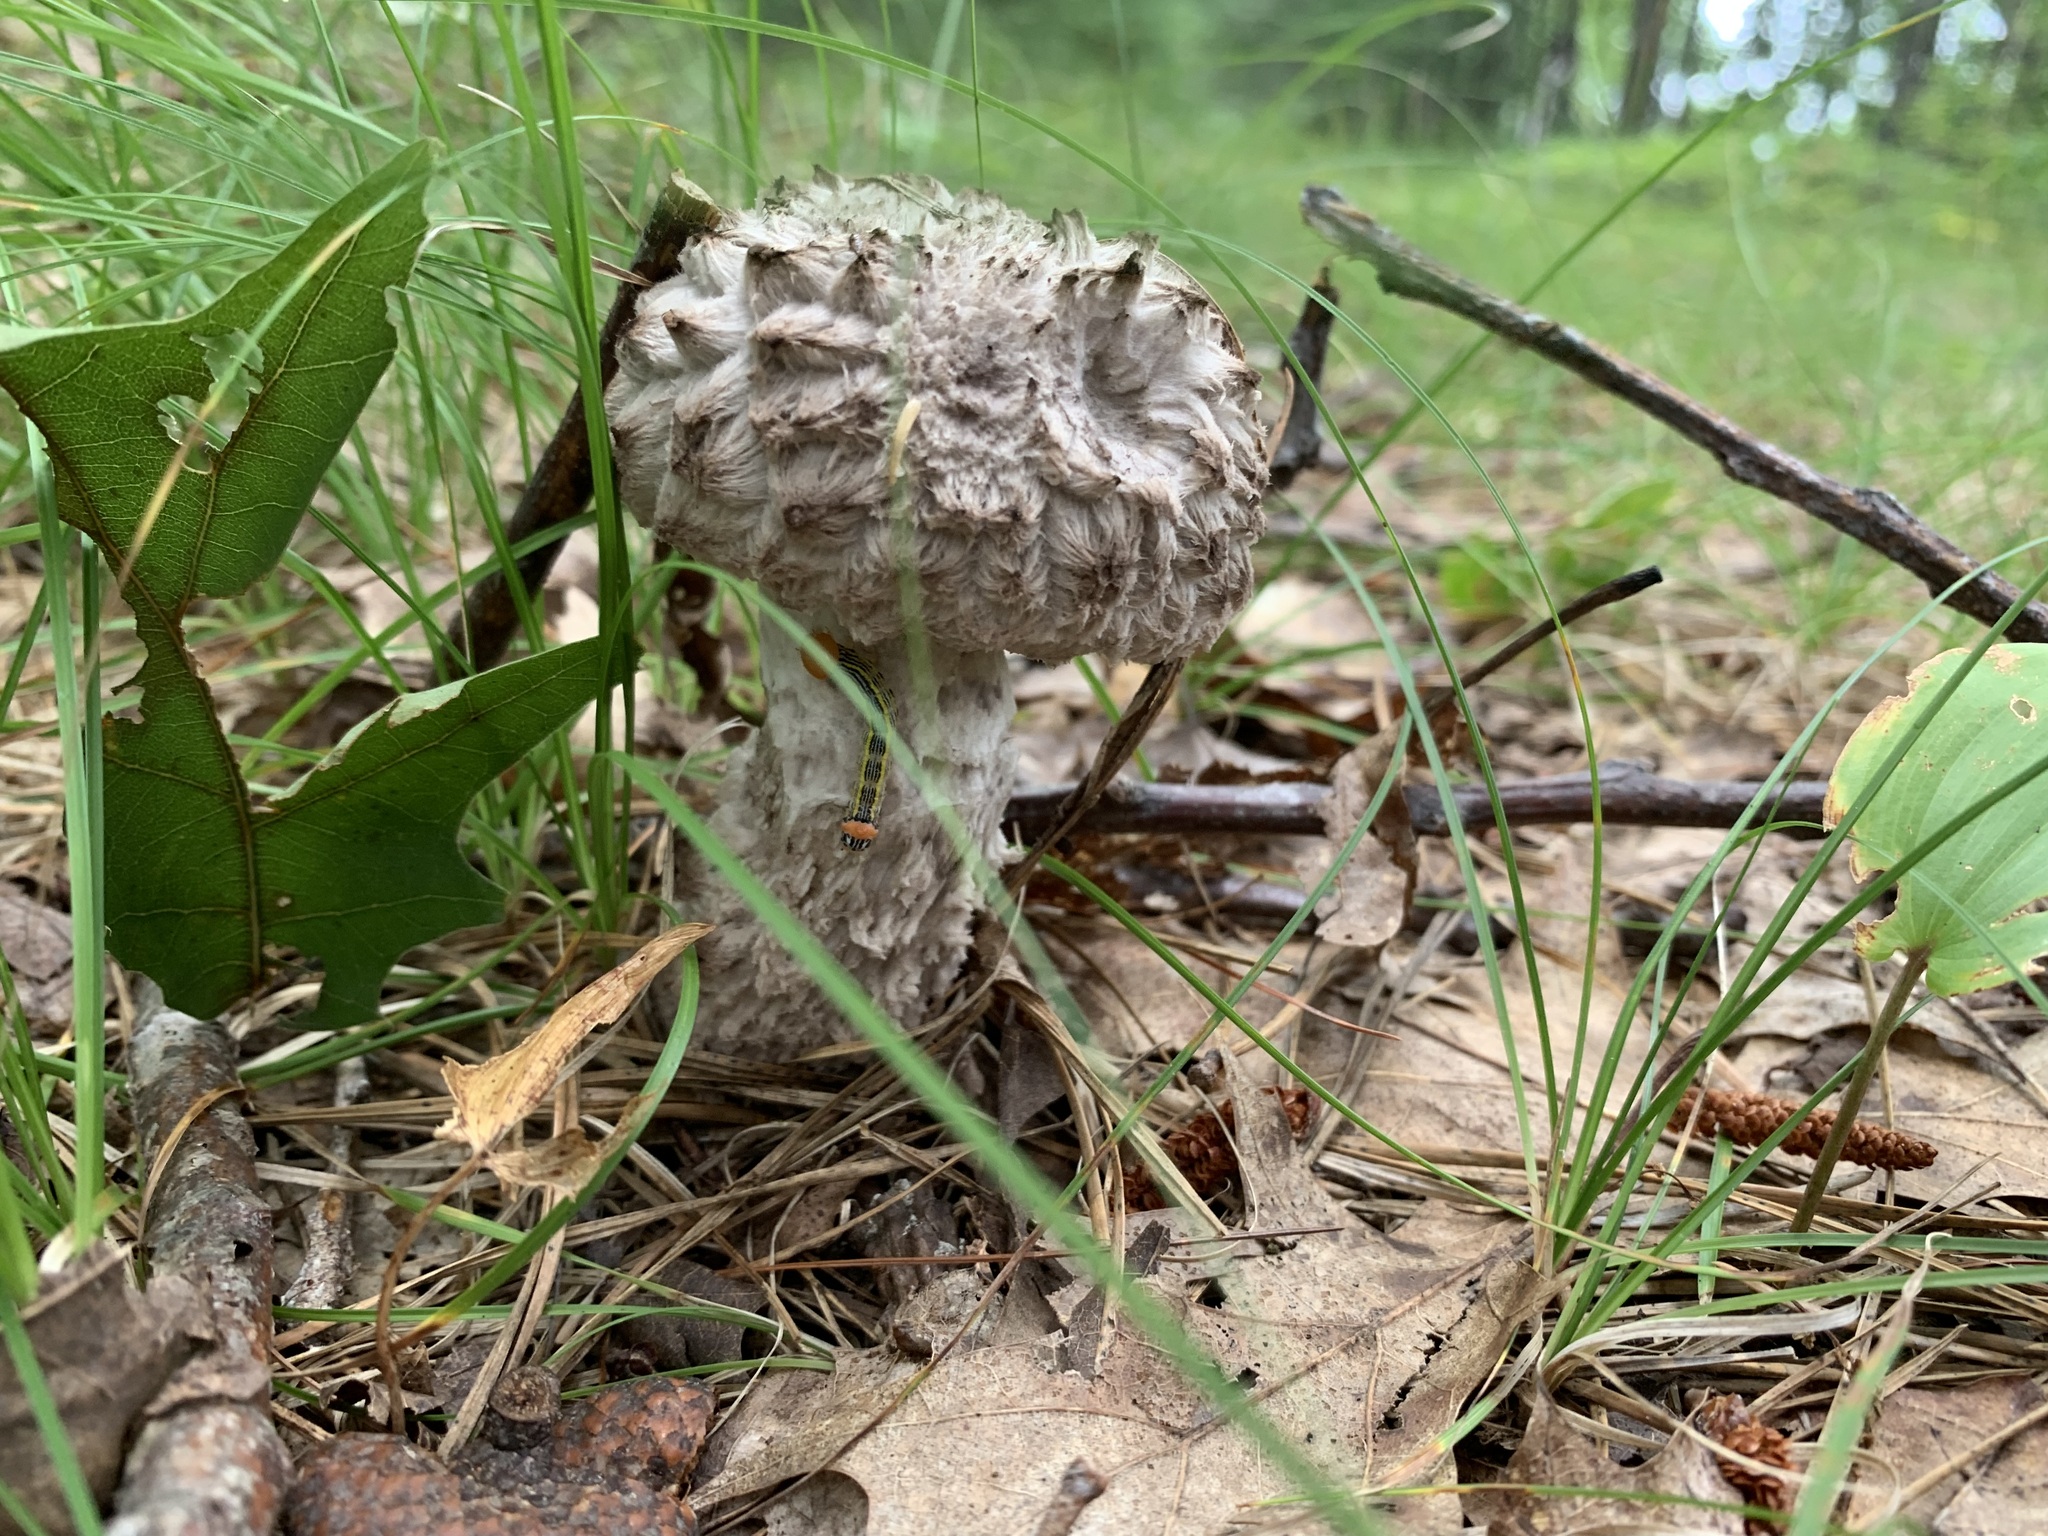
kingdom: Fungi
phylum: Basidiomycota
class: Agaricomycetes
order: Boletales
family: Boletaceae
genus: Strobilomyces
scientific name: Strobilomyces strobilaceus
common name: Old man of the woods
